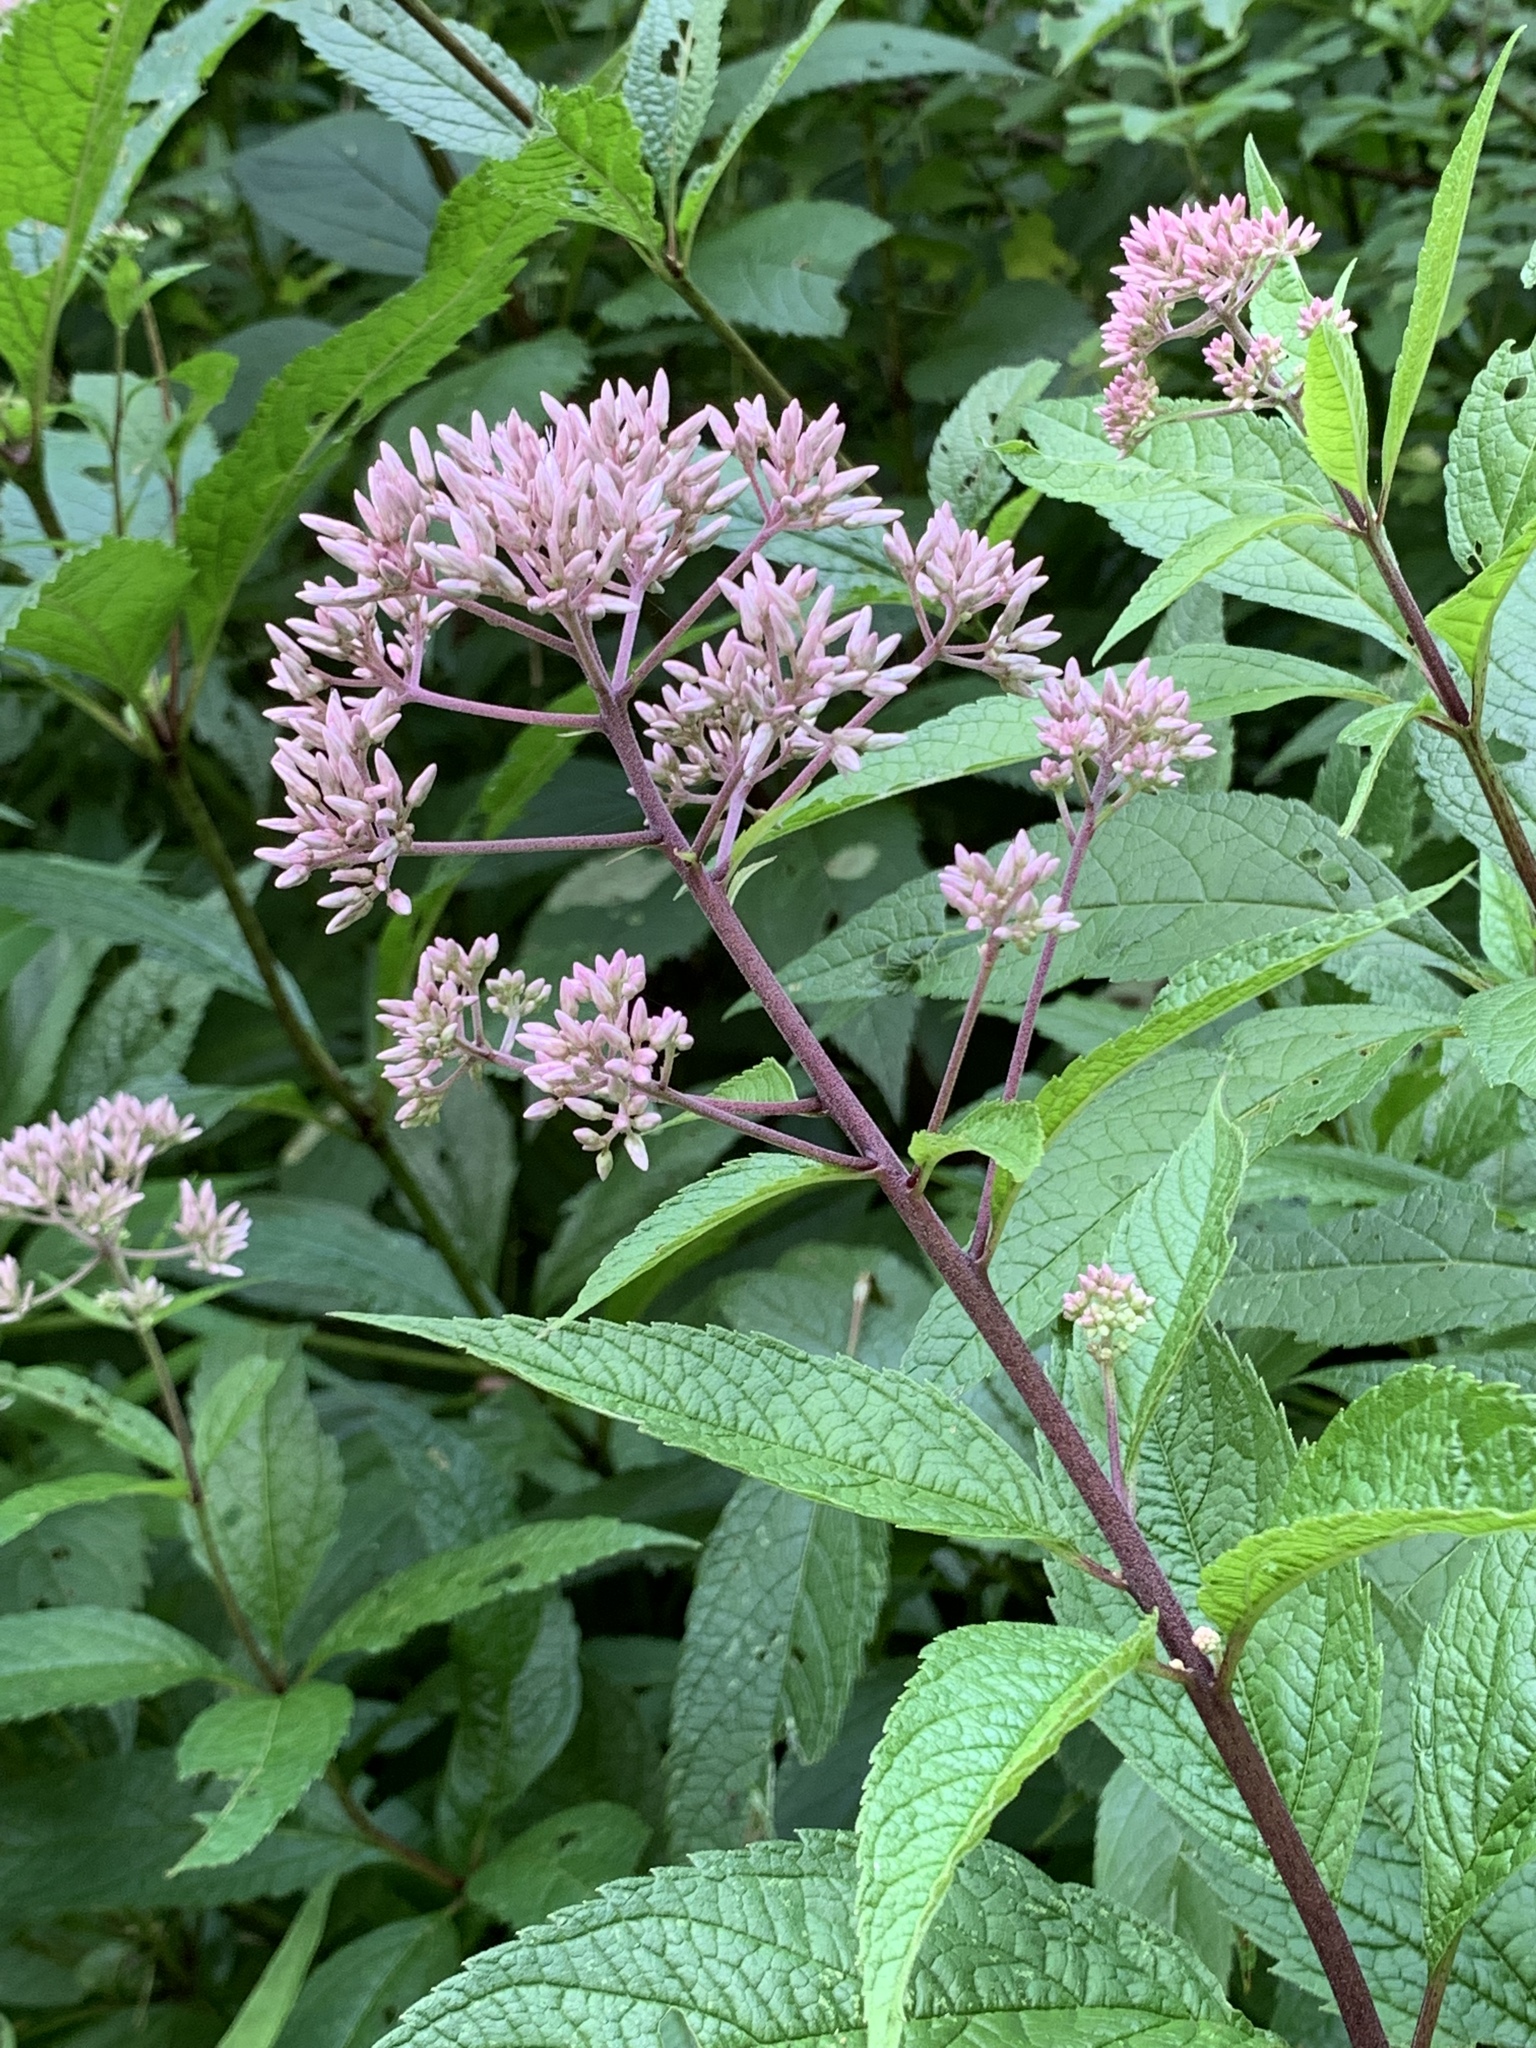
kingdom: Plantae
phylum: Tracheophyta
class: Magnoliopsida
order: Asterales
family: Asteraceae
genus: Eutrochium
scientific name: Eutrochium purpureum
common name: Gravelroot
